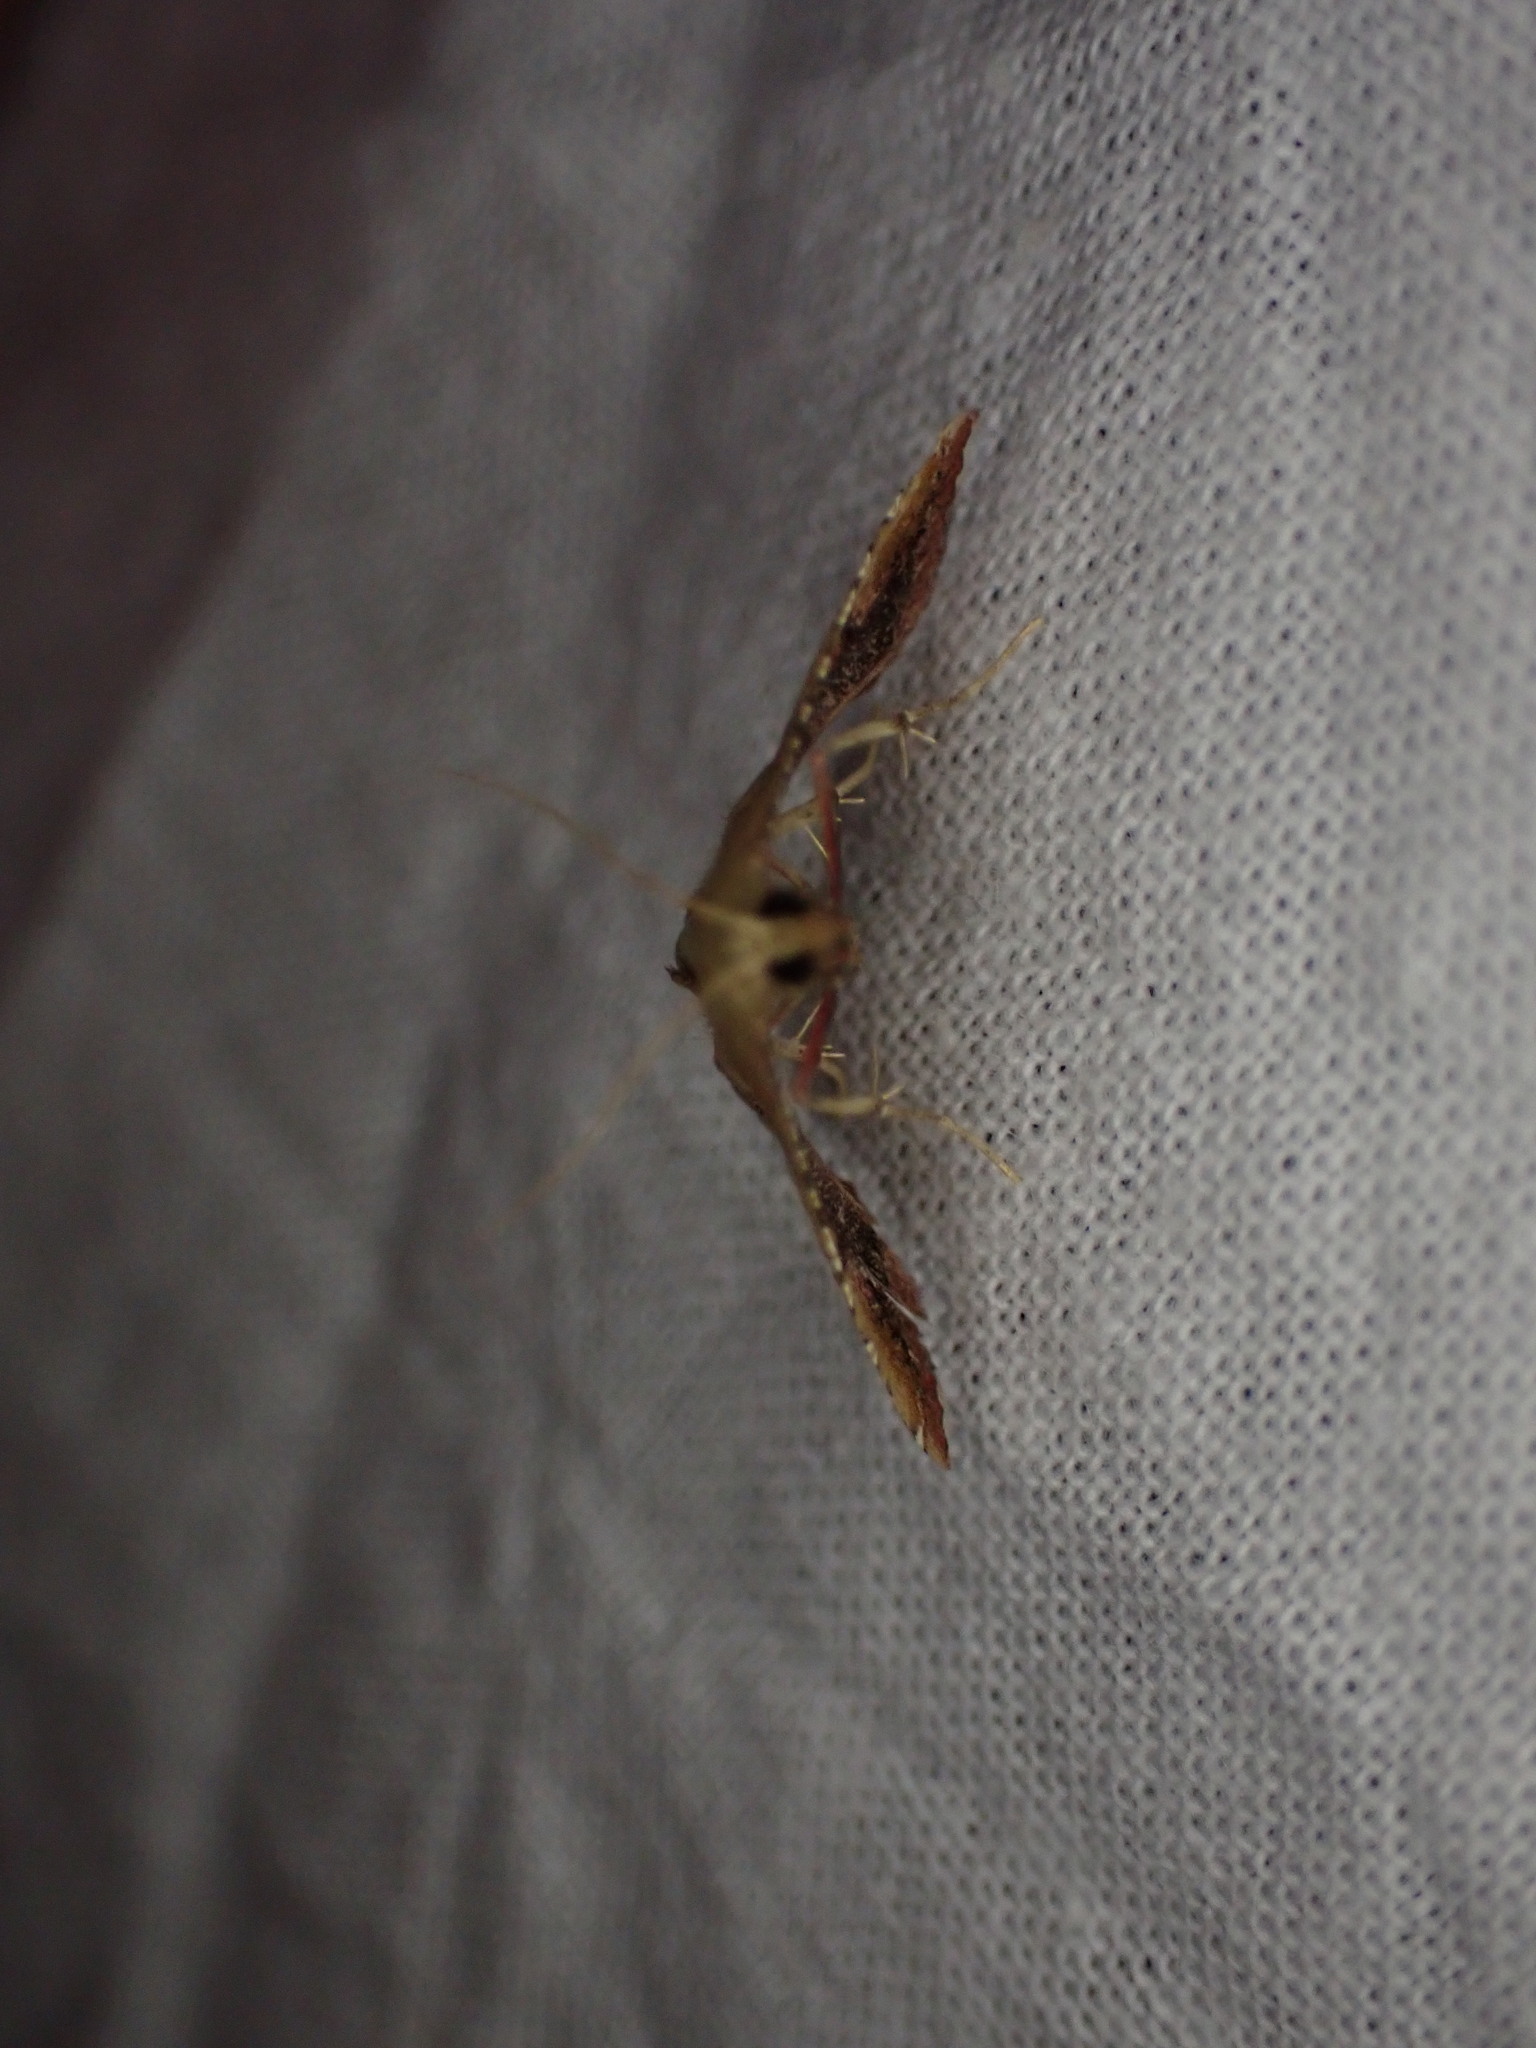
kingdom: Animalia
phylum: Arthropoda
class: Insecta
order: Lepidoptera
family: Pyralidae
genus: Endotricha
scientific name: Endotricha flammealis
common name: Rosy tabby
